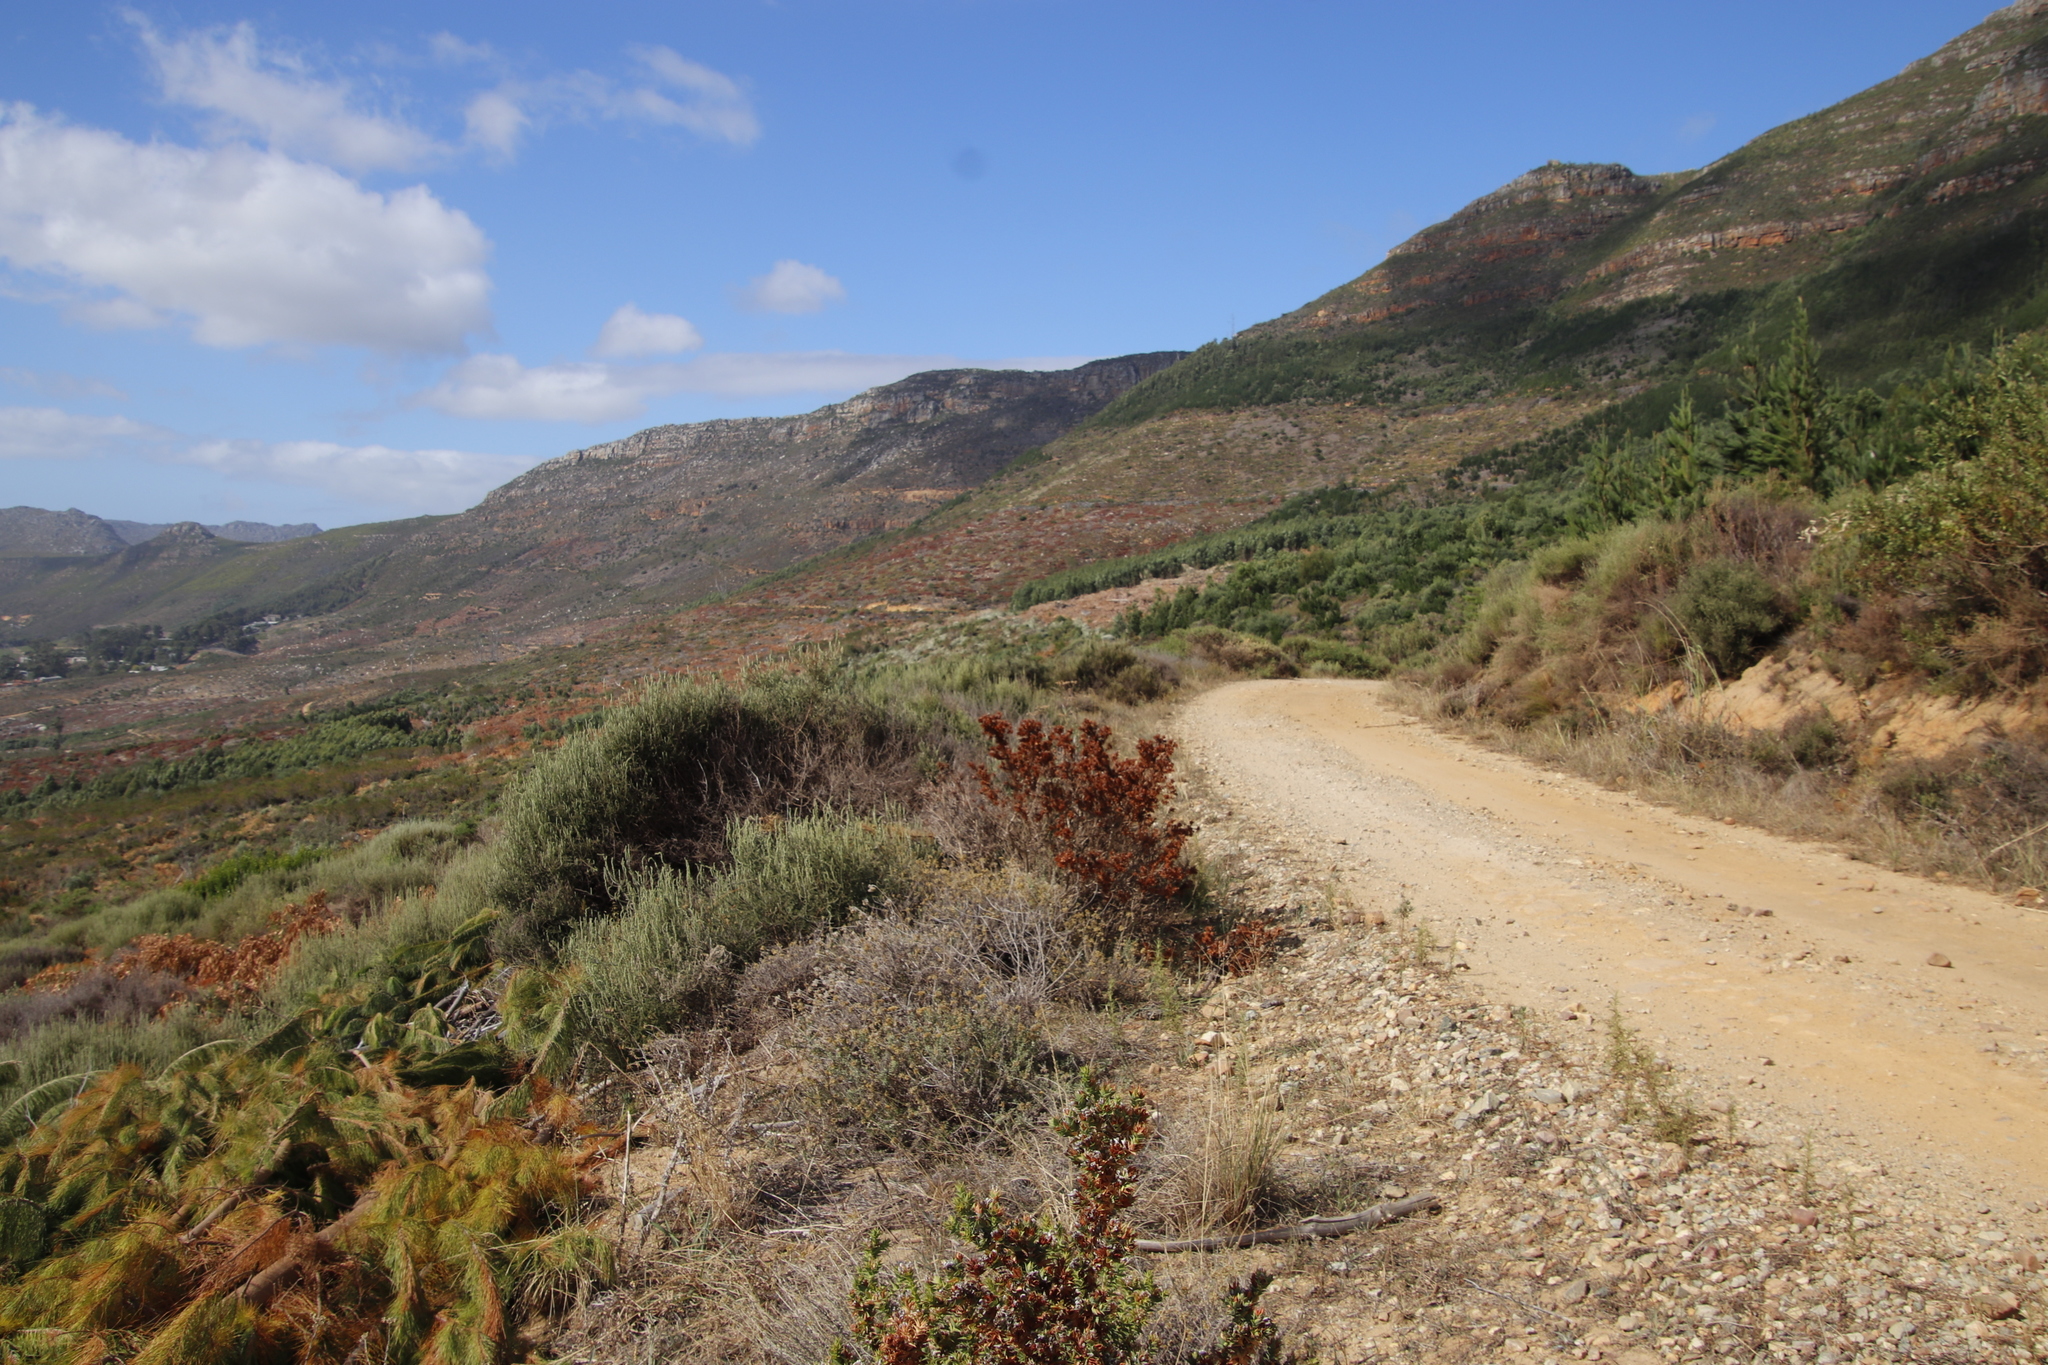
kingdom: Plantae
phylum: Tracheophyta
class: Magnoliopsida
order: Fabales
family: Fabaceae
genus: Aspalathus
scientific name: Aspalathus cordata
